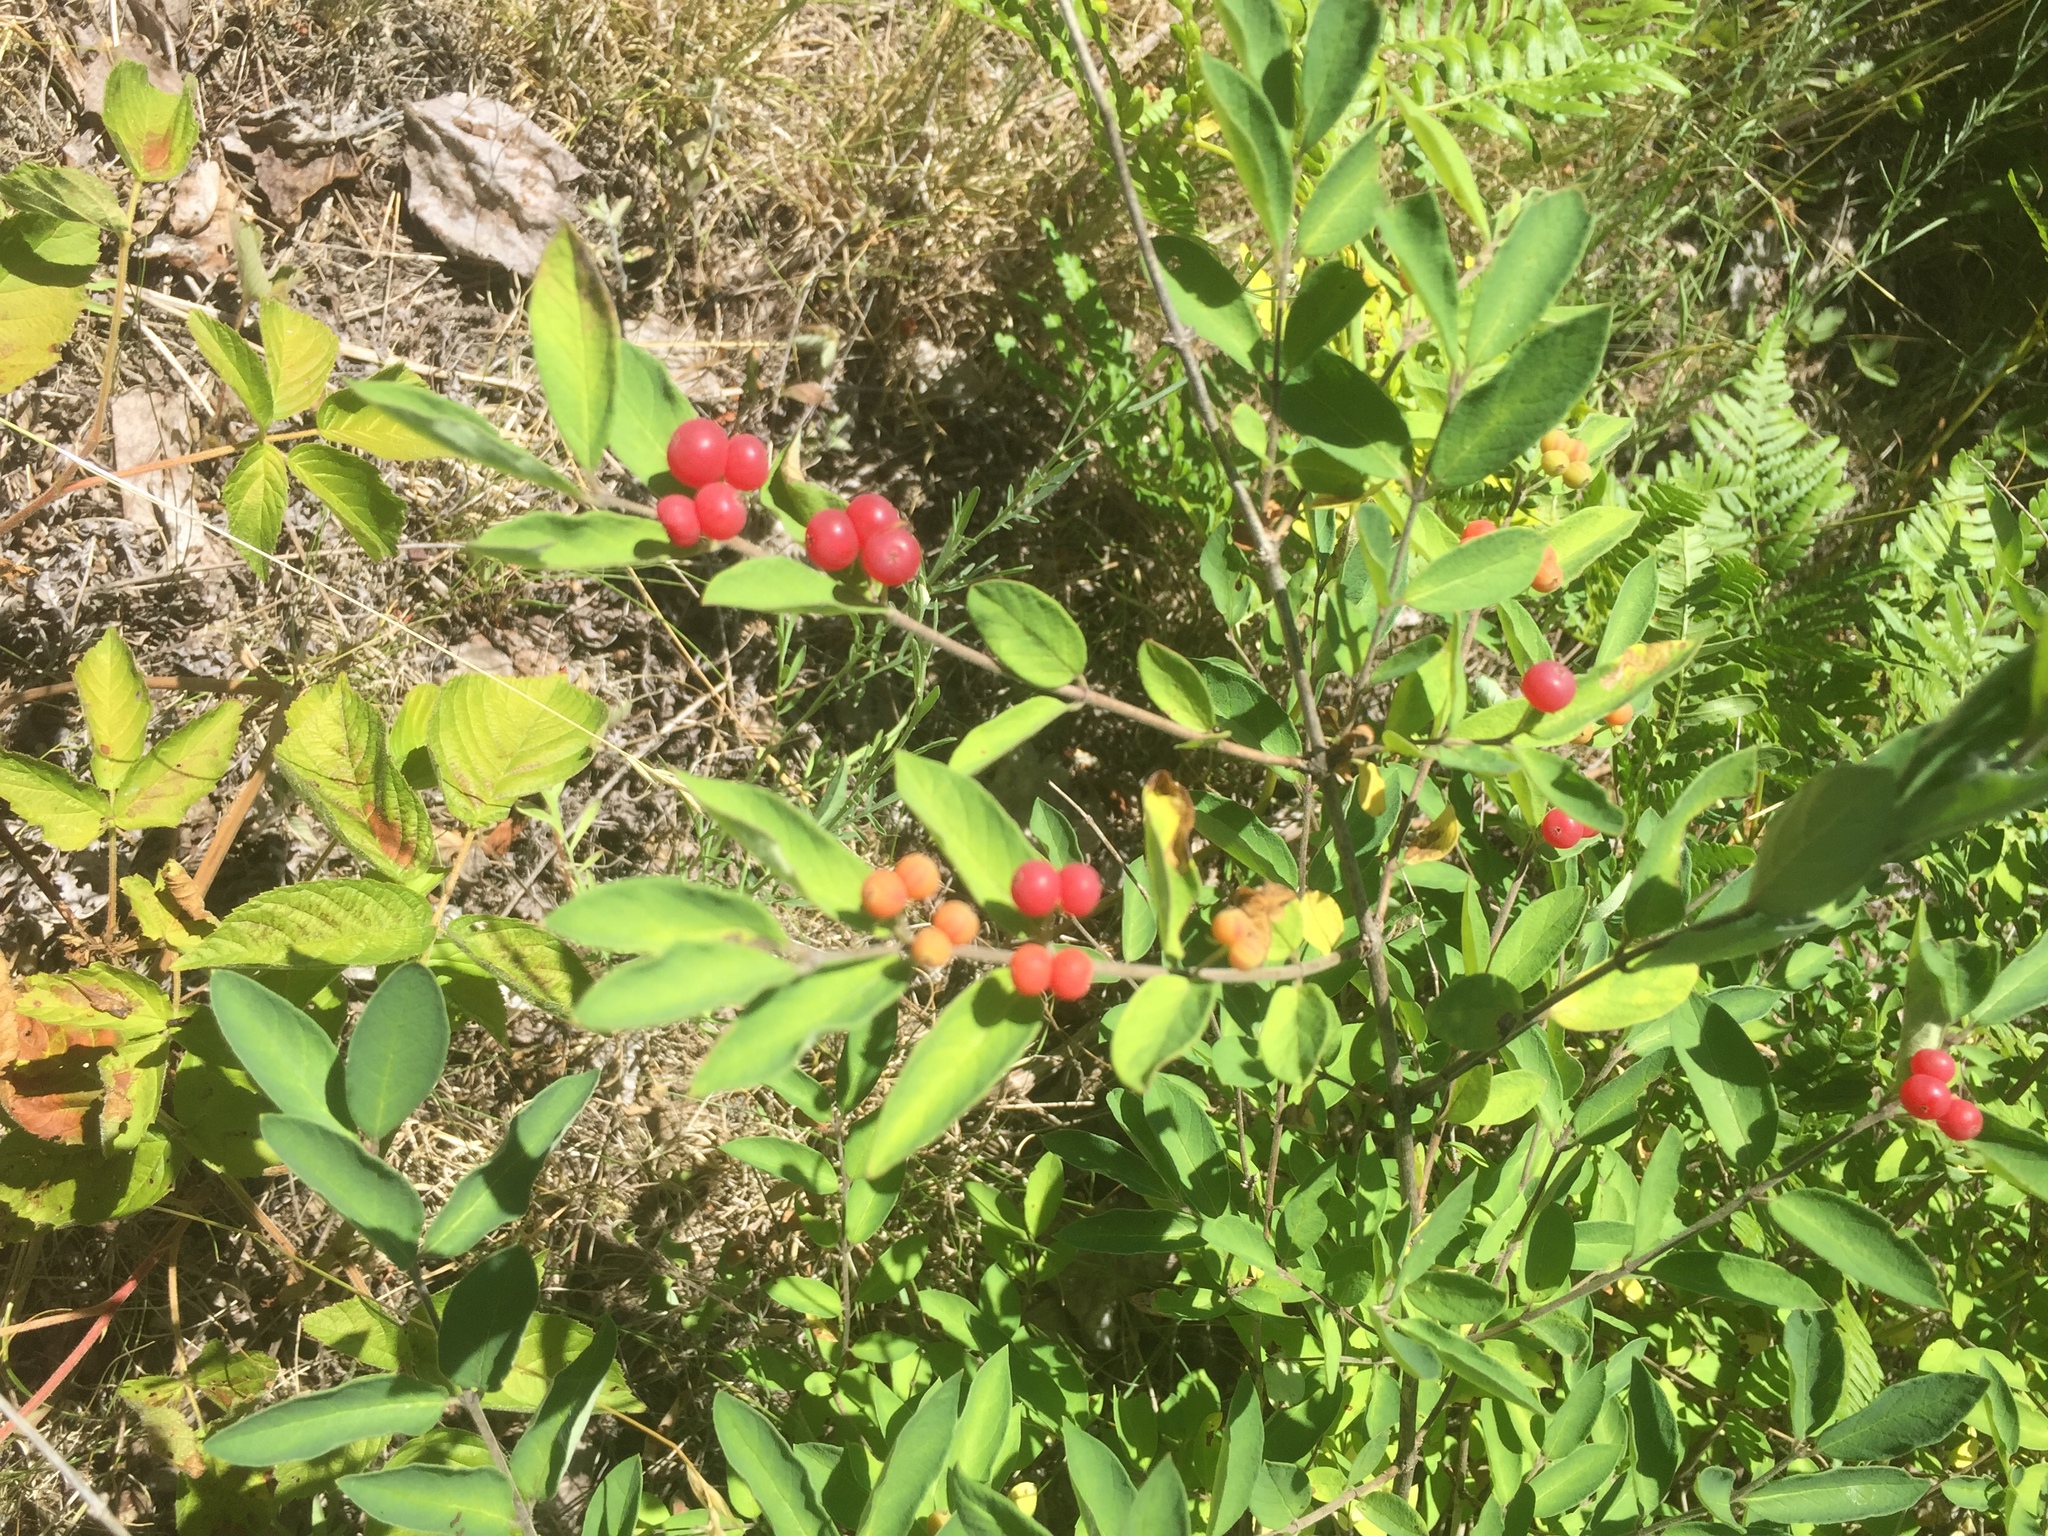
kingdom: Plantae
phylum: Tracheophyta
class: Magnoliopsida
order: Dipsacales
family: Caprifoliaceae
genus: Lonicera
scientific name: Lonicera morrowii
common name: Morrow's honeysuckle
